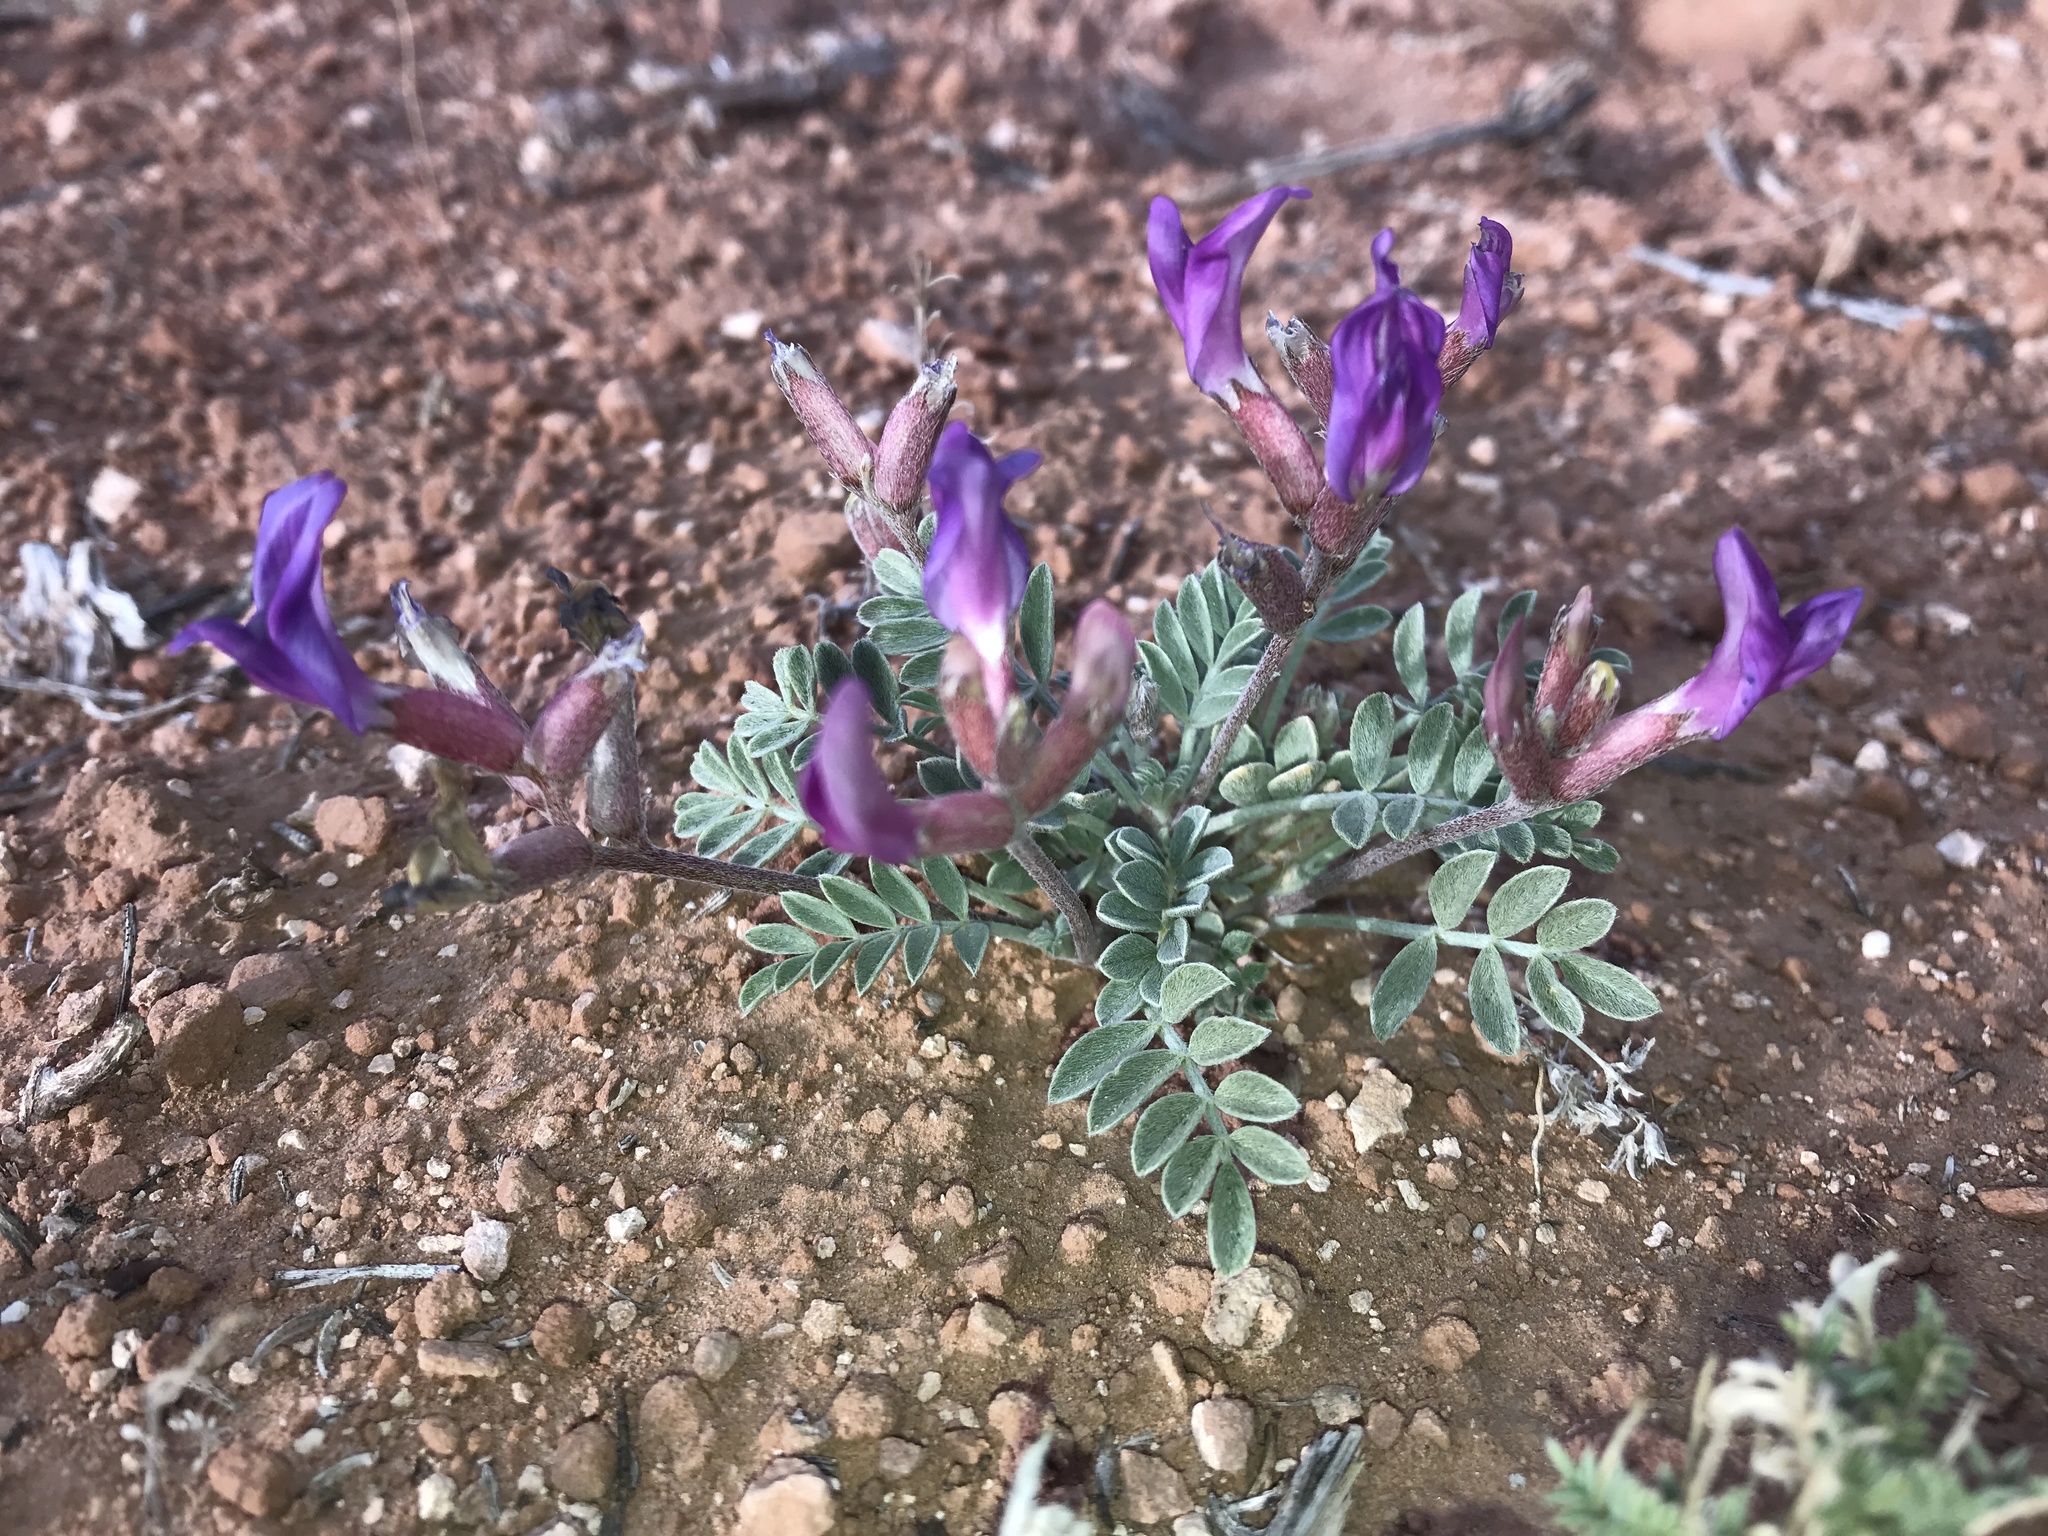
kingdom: Plantae
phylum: Tracheophyta
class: Magnoliopsida
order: Fabales
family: Fabaceae
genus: Astragalus
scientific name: Astragalus amphioxys
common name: Crescent milk-vetch
